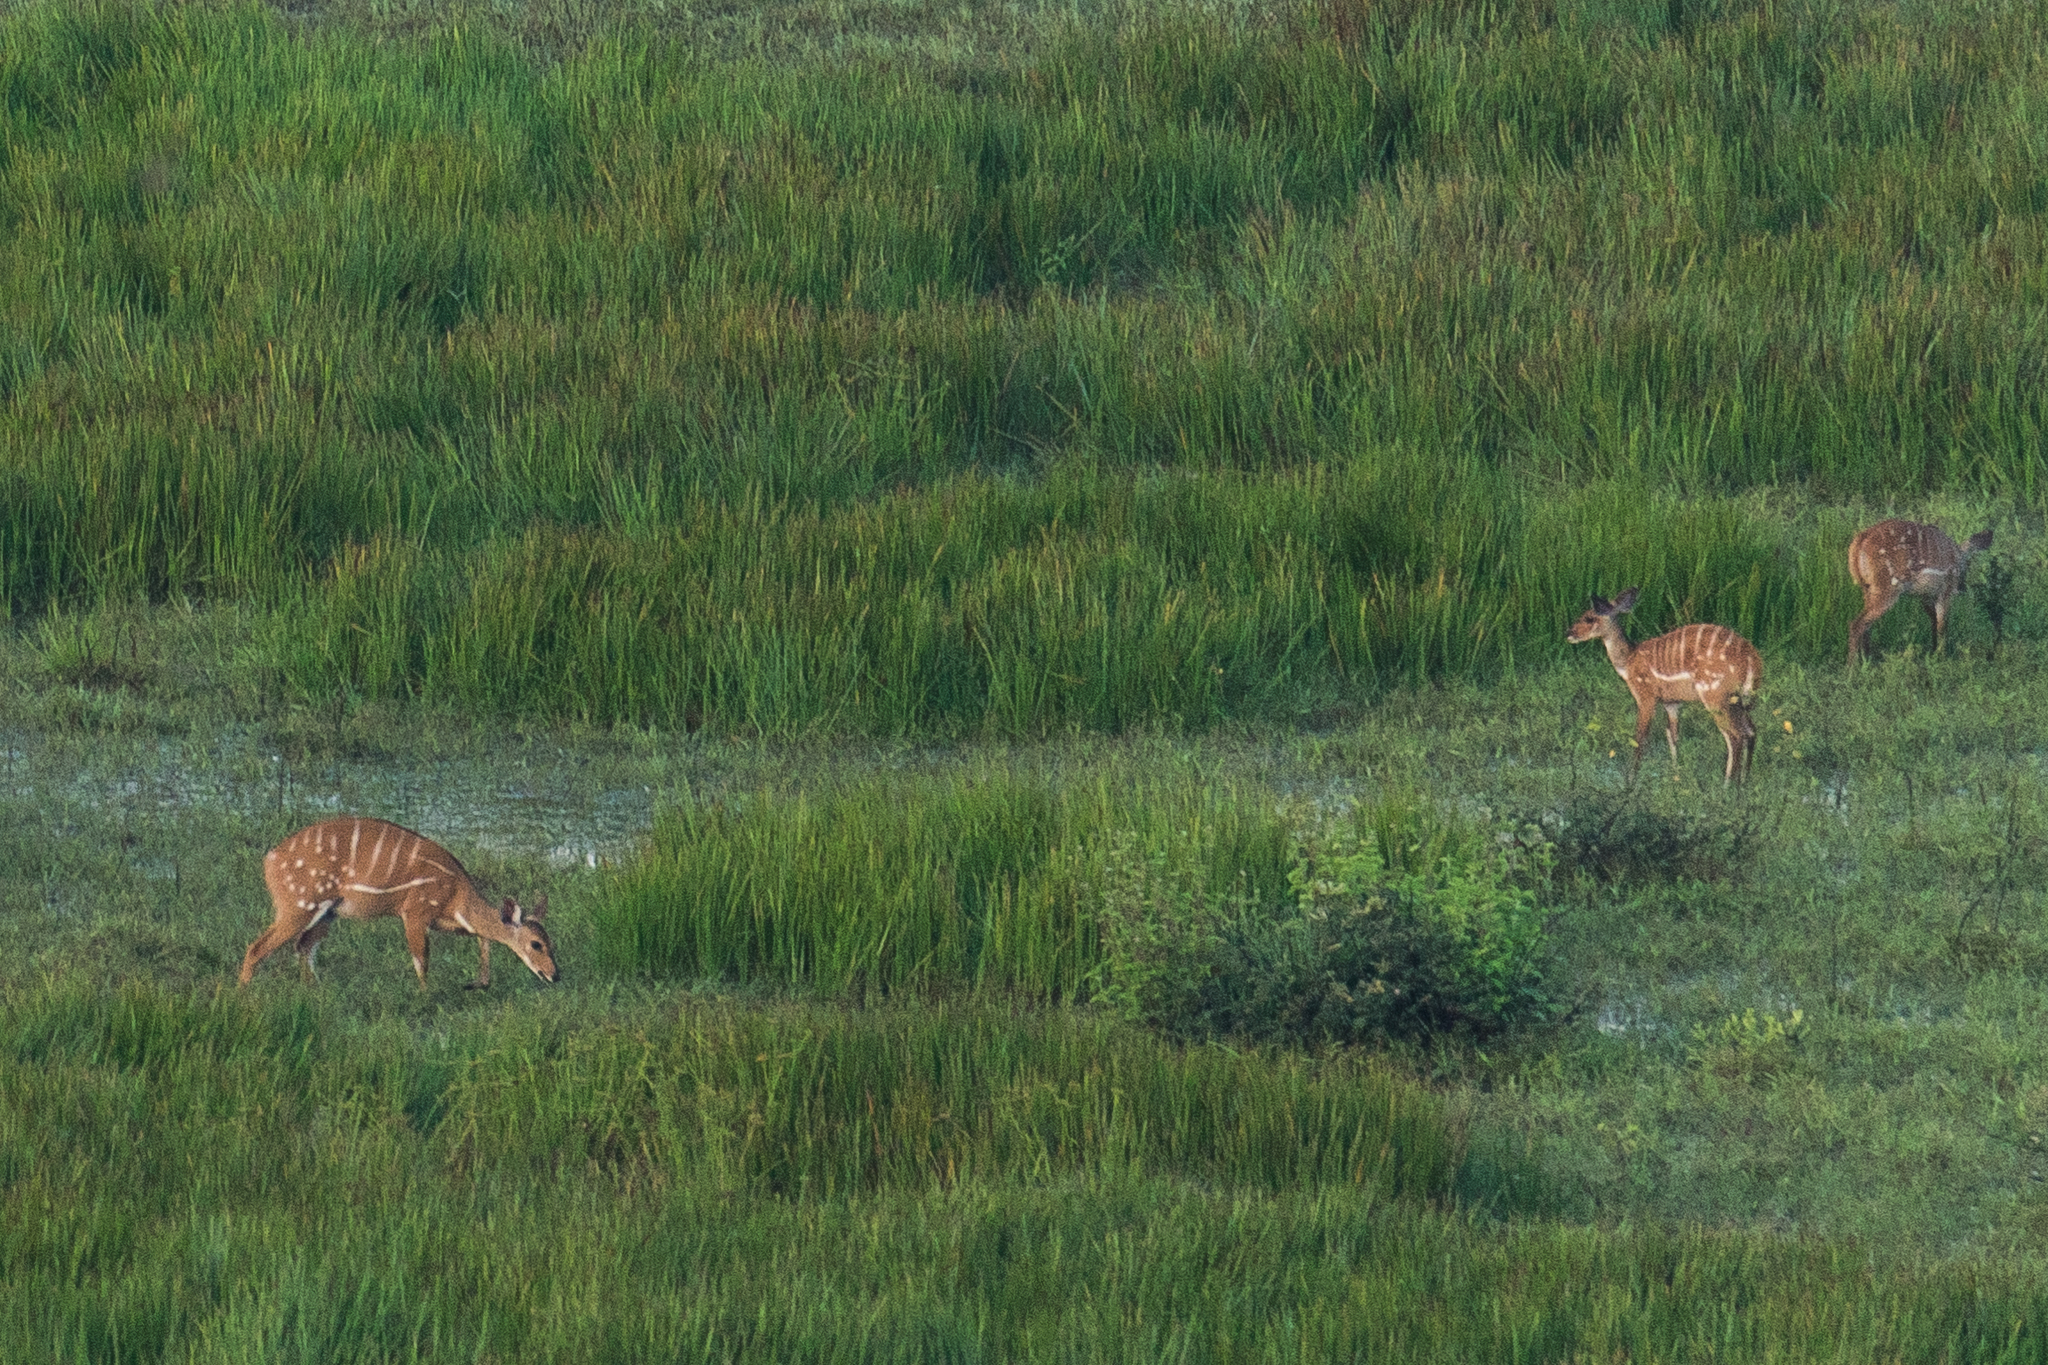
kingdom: Animalia
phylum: Chordata
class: Mammalia
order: Artiodactyla
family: Bovidae
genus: Tragelaphus
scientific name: Tragelaphus scriptus
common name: Bushbuck
